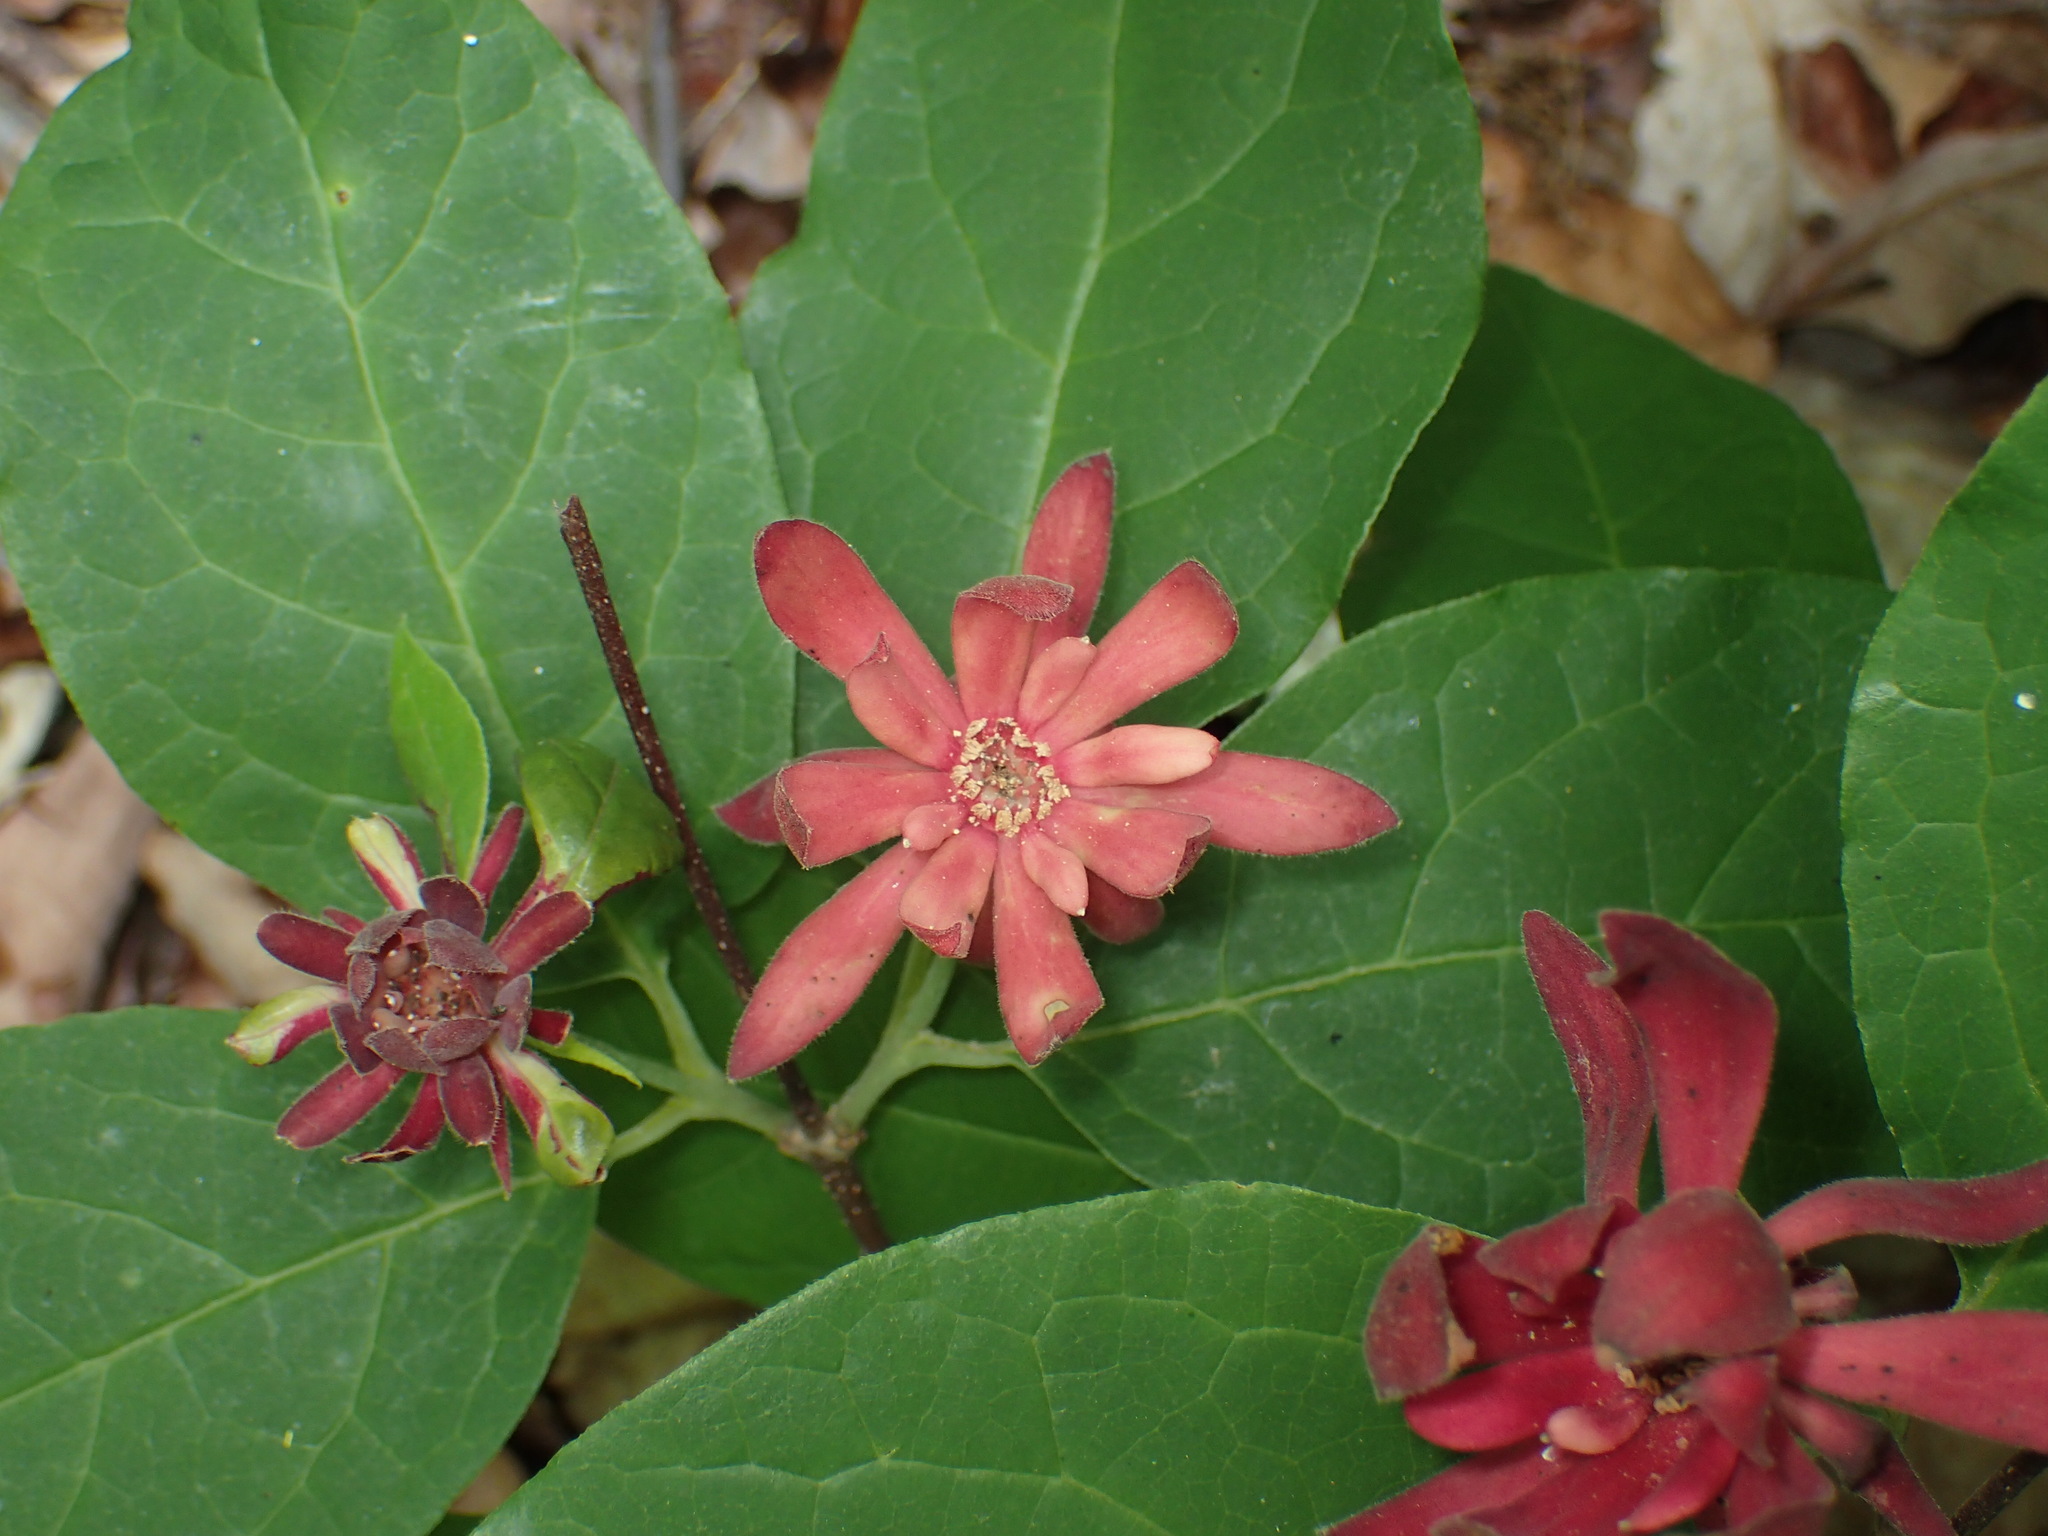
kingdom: Plantae
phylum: Tracheophyta
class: Magnoliopsida
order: Laurales
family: Calycanthaceae
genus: Calycanthus
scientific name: Calycanthus floridus
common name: Carolina-allspice
